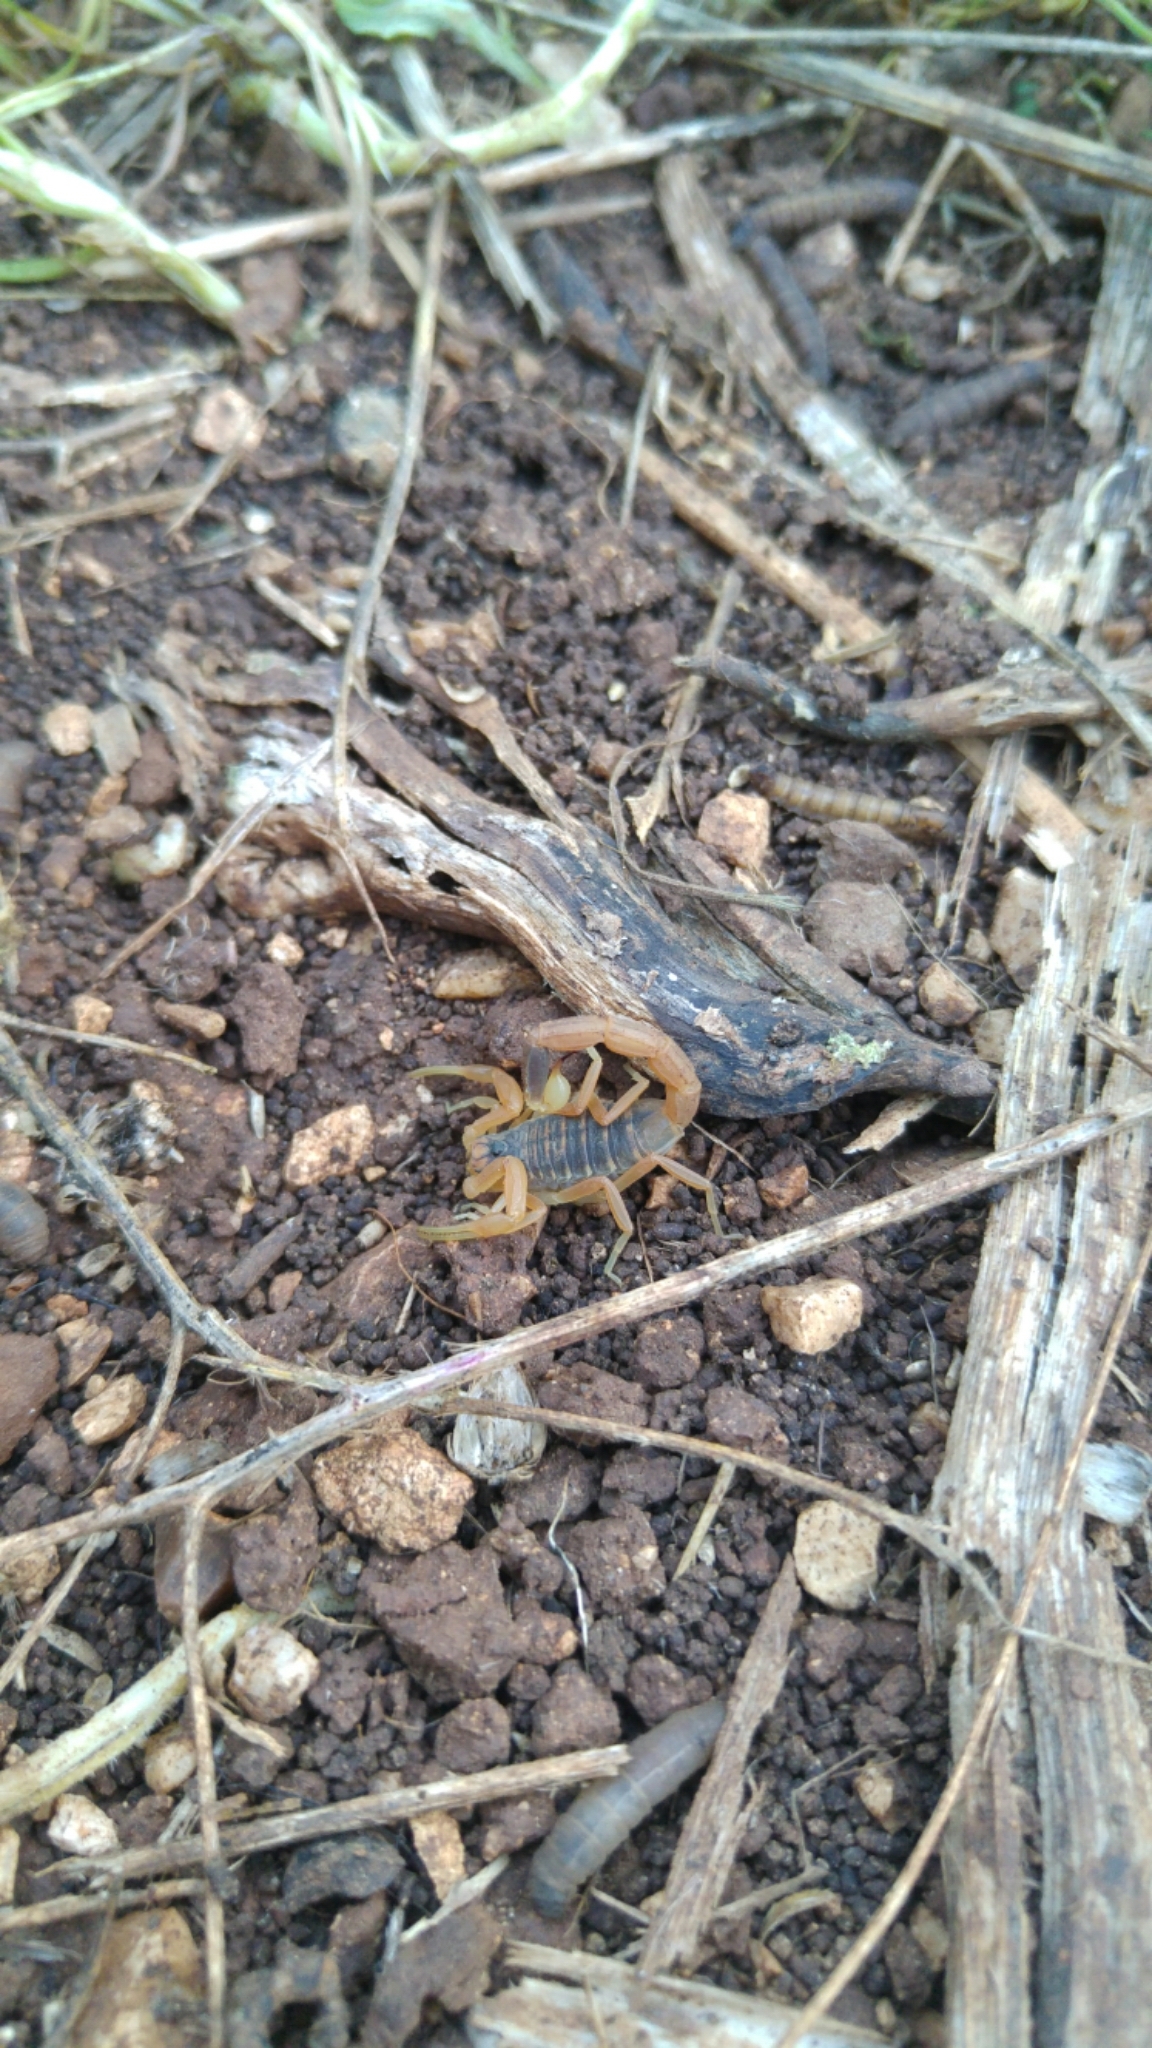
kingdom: Animalia
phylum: Arthropoda
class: Arachnida
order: Scorpiones
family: Buthidae
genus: Leiurus
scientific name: Leiurus hebraeus
